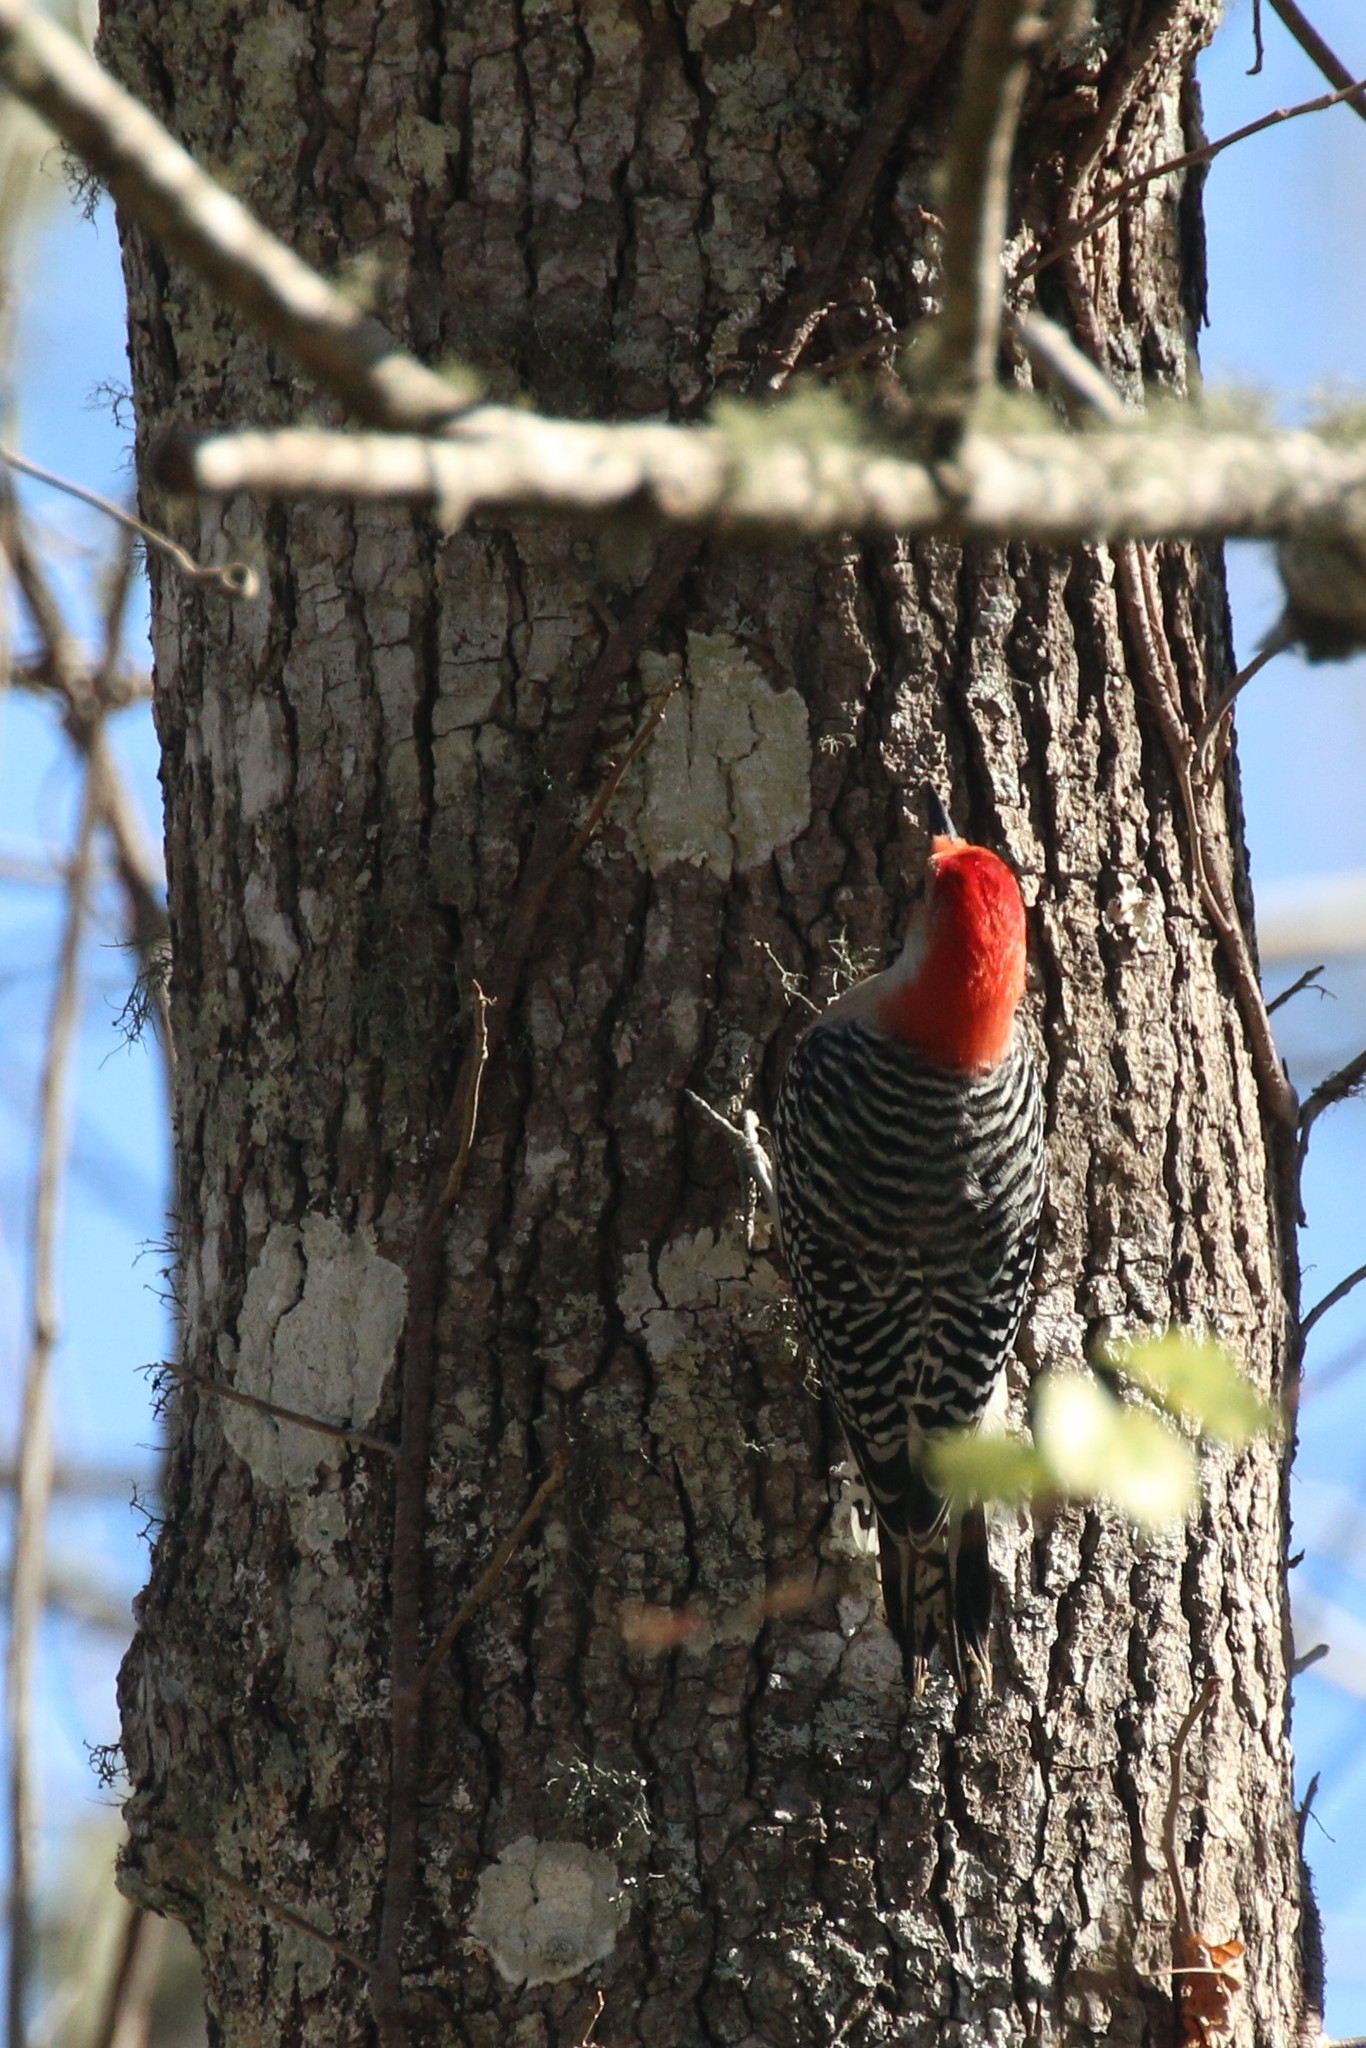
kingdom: Animalia
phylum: Chordata
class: Aves
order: Piciformes
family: Picidae
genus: Melanerpes
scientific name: Melanerpes carolinus
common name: Red-bellied woodpecker
